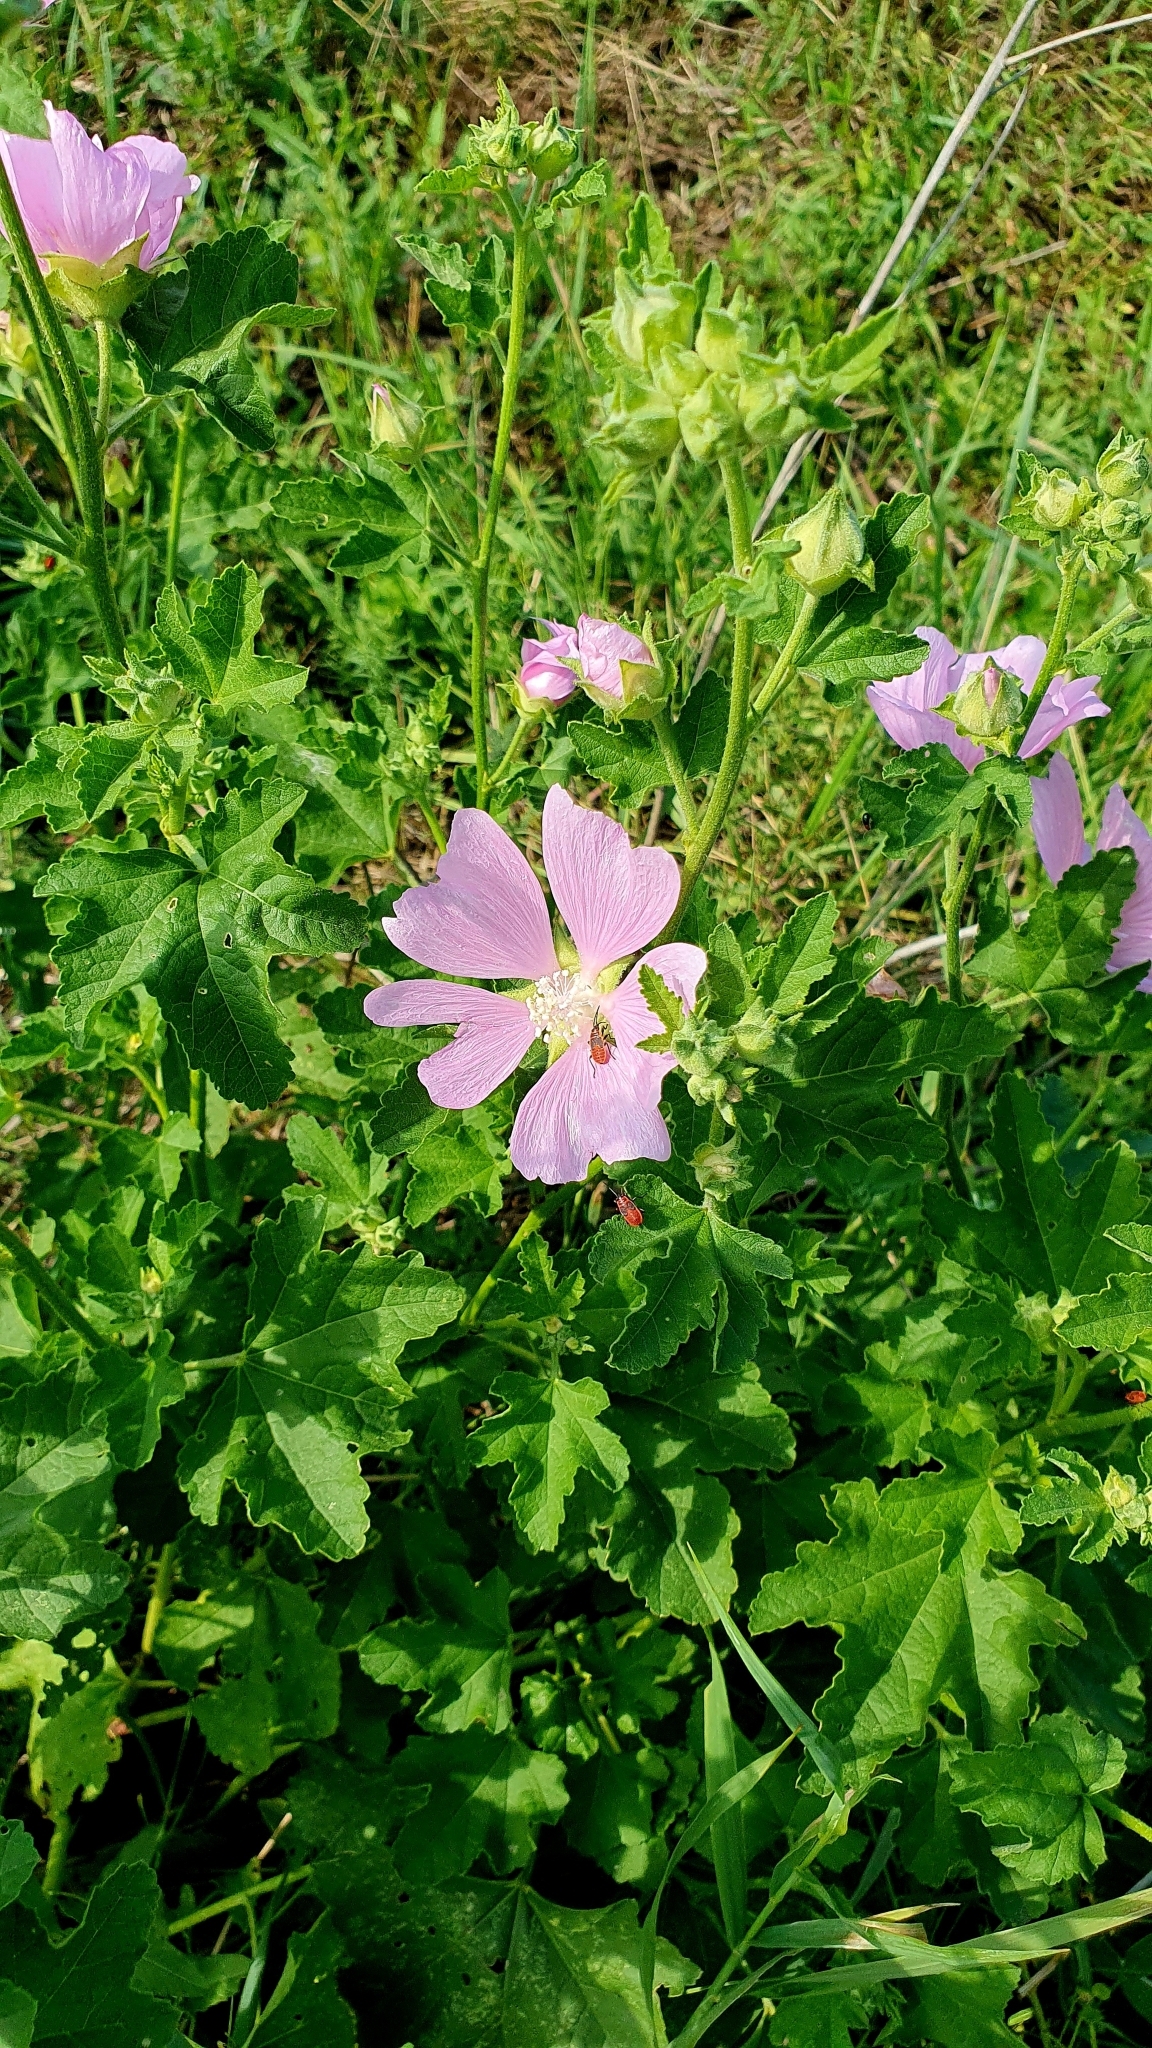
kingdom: Plantae
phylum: Tracheophyta
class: Magnoliopsida
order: Malvales
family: Malvaceae
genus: Malva
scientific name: Malva thuringiaca
